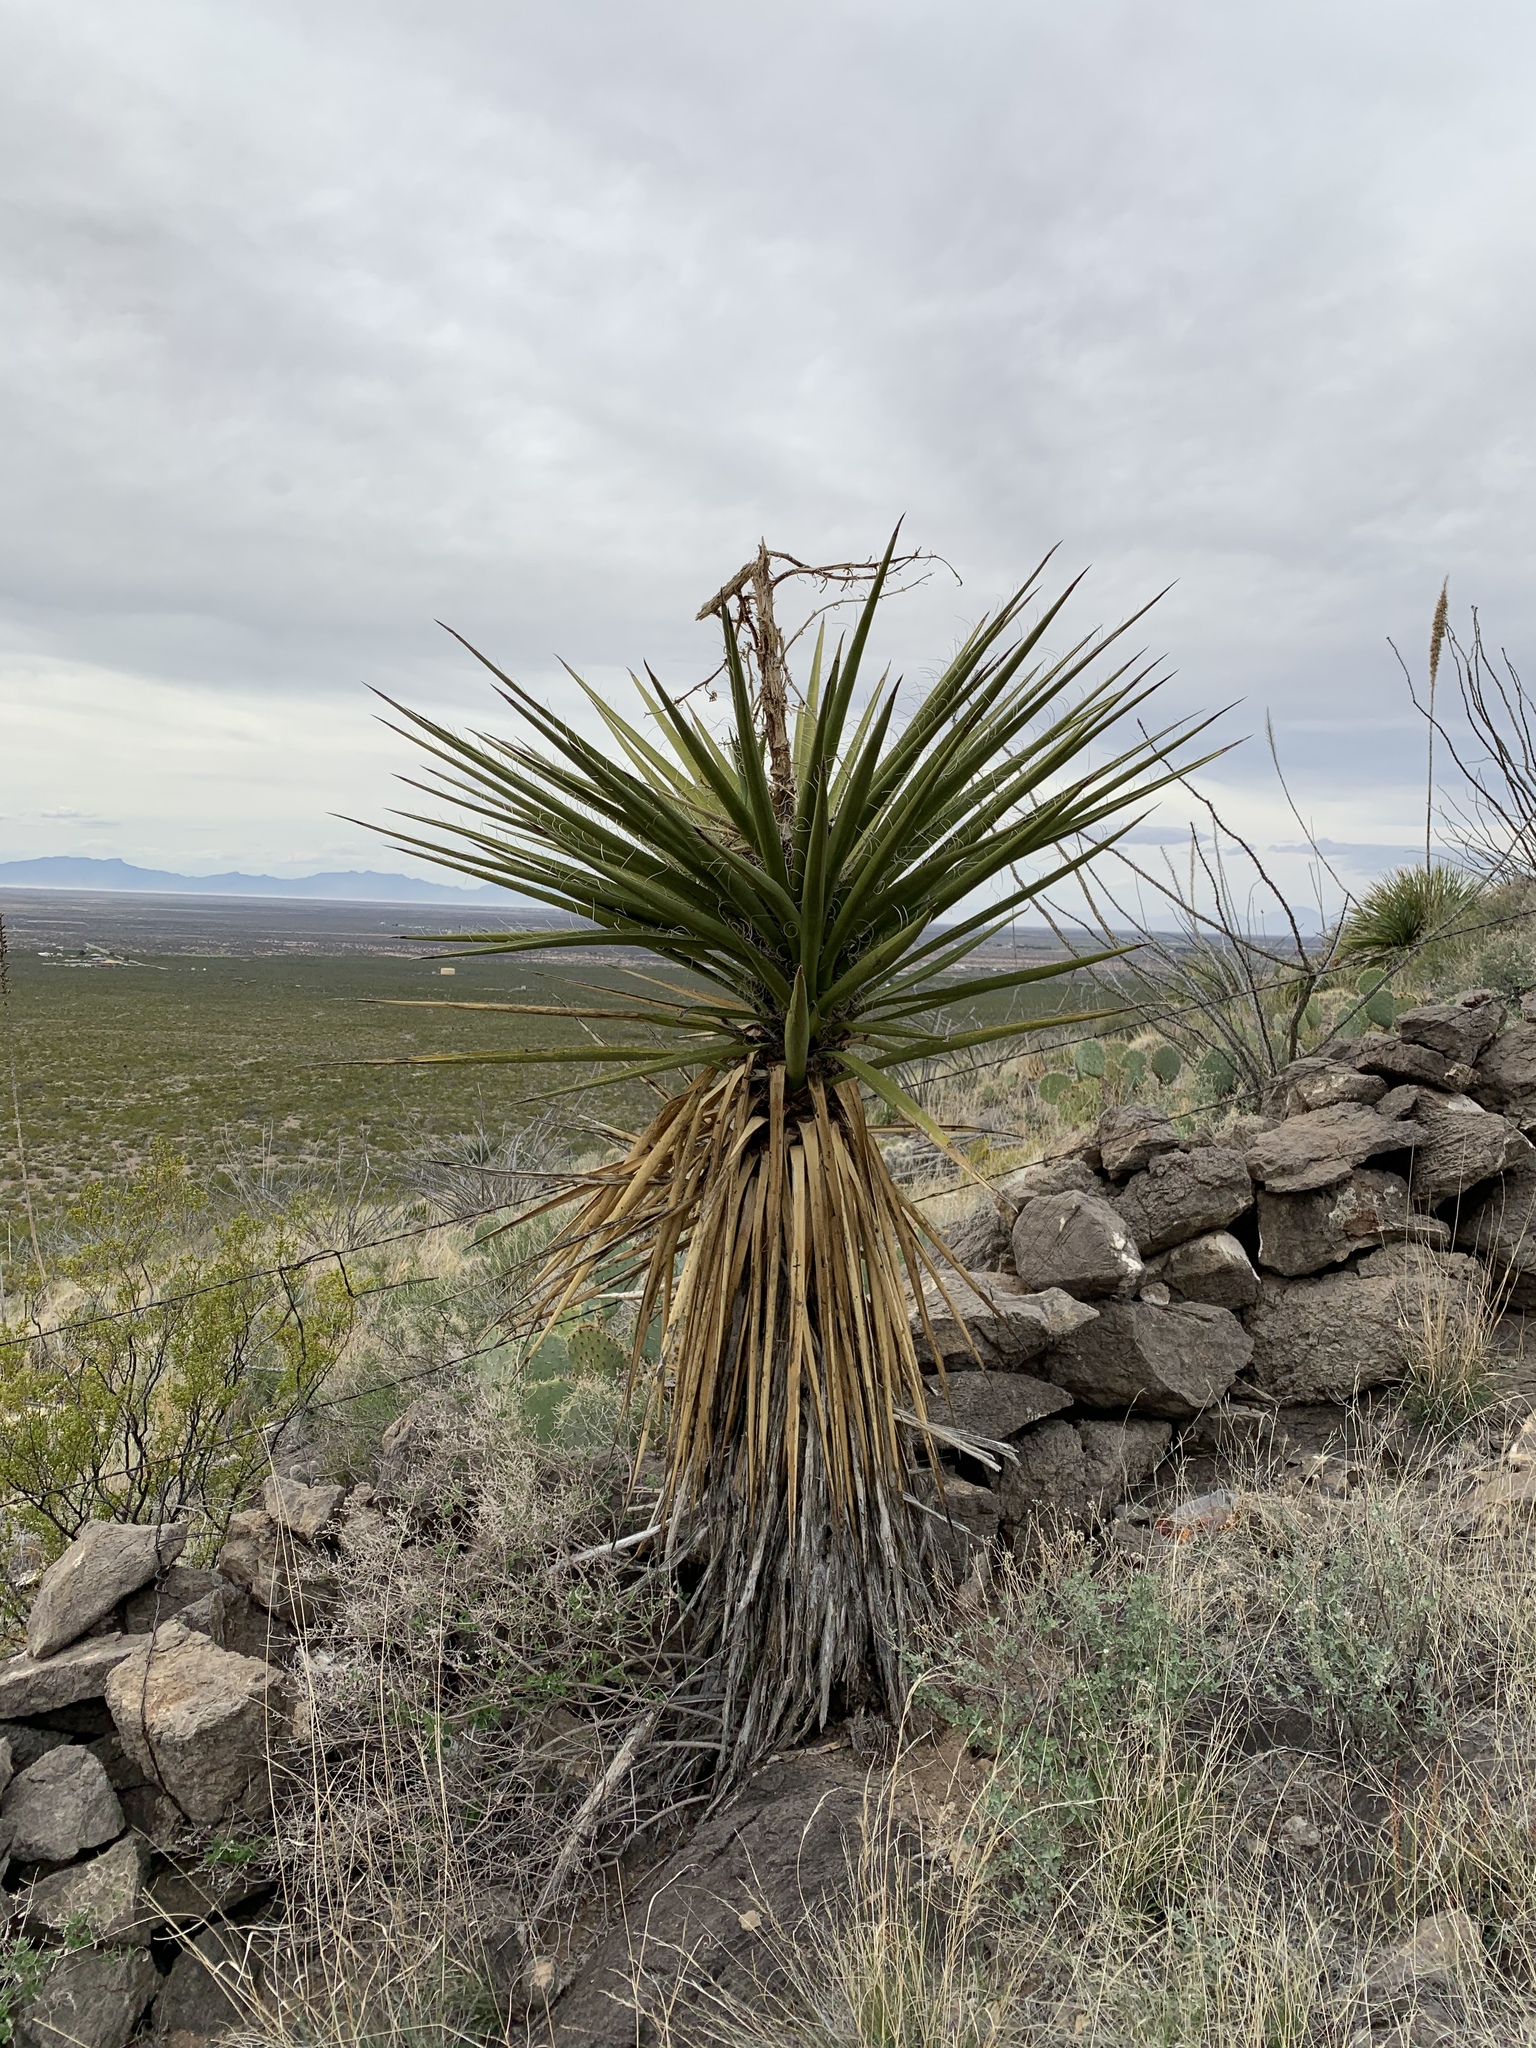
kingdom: Plantae
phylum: Tracheophyta
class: Liliopsida
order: Asparagales
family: Asparagaceae
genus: Yucca
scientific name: Yucca treculiana
